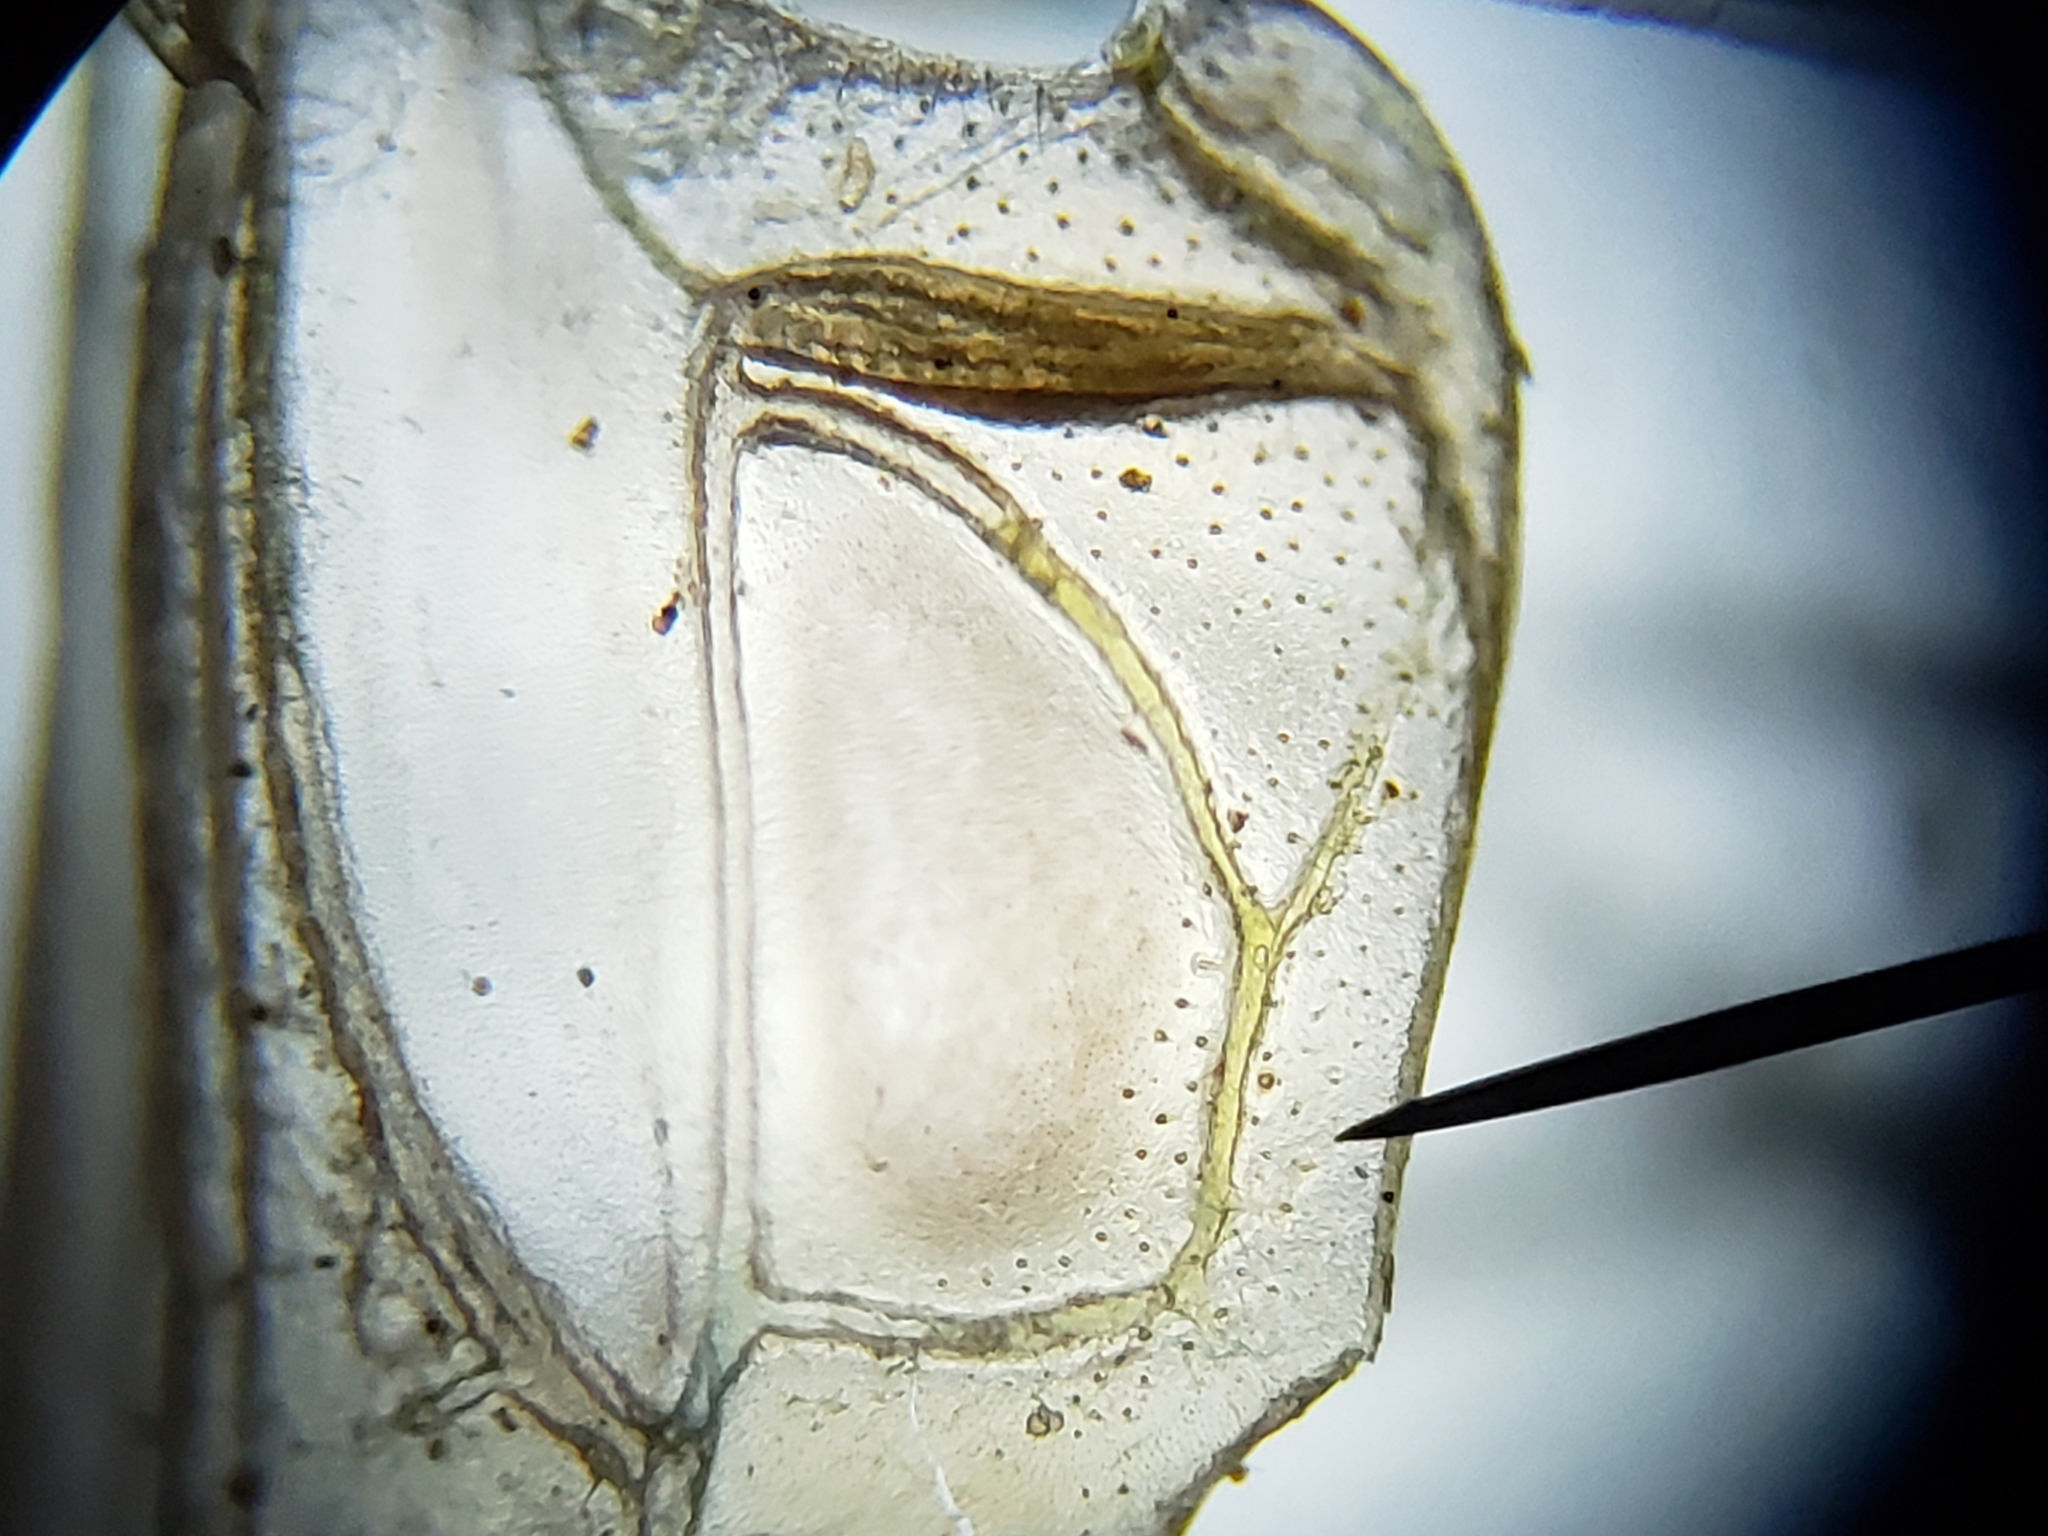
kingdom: Animalia
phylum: Arthropoda
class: Insecta
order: Orthoptera
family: Tettigoniidae
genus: Conocephalus
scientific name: Conocephalus cinereus
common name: Caribbean meadow katydid
